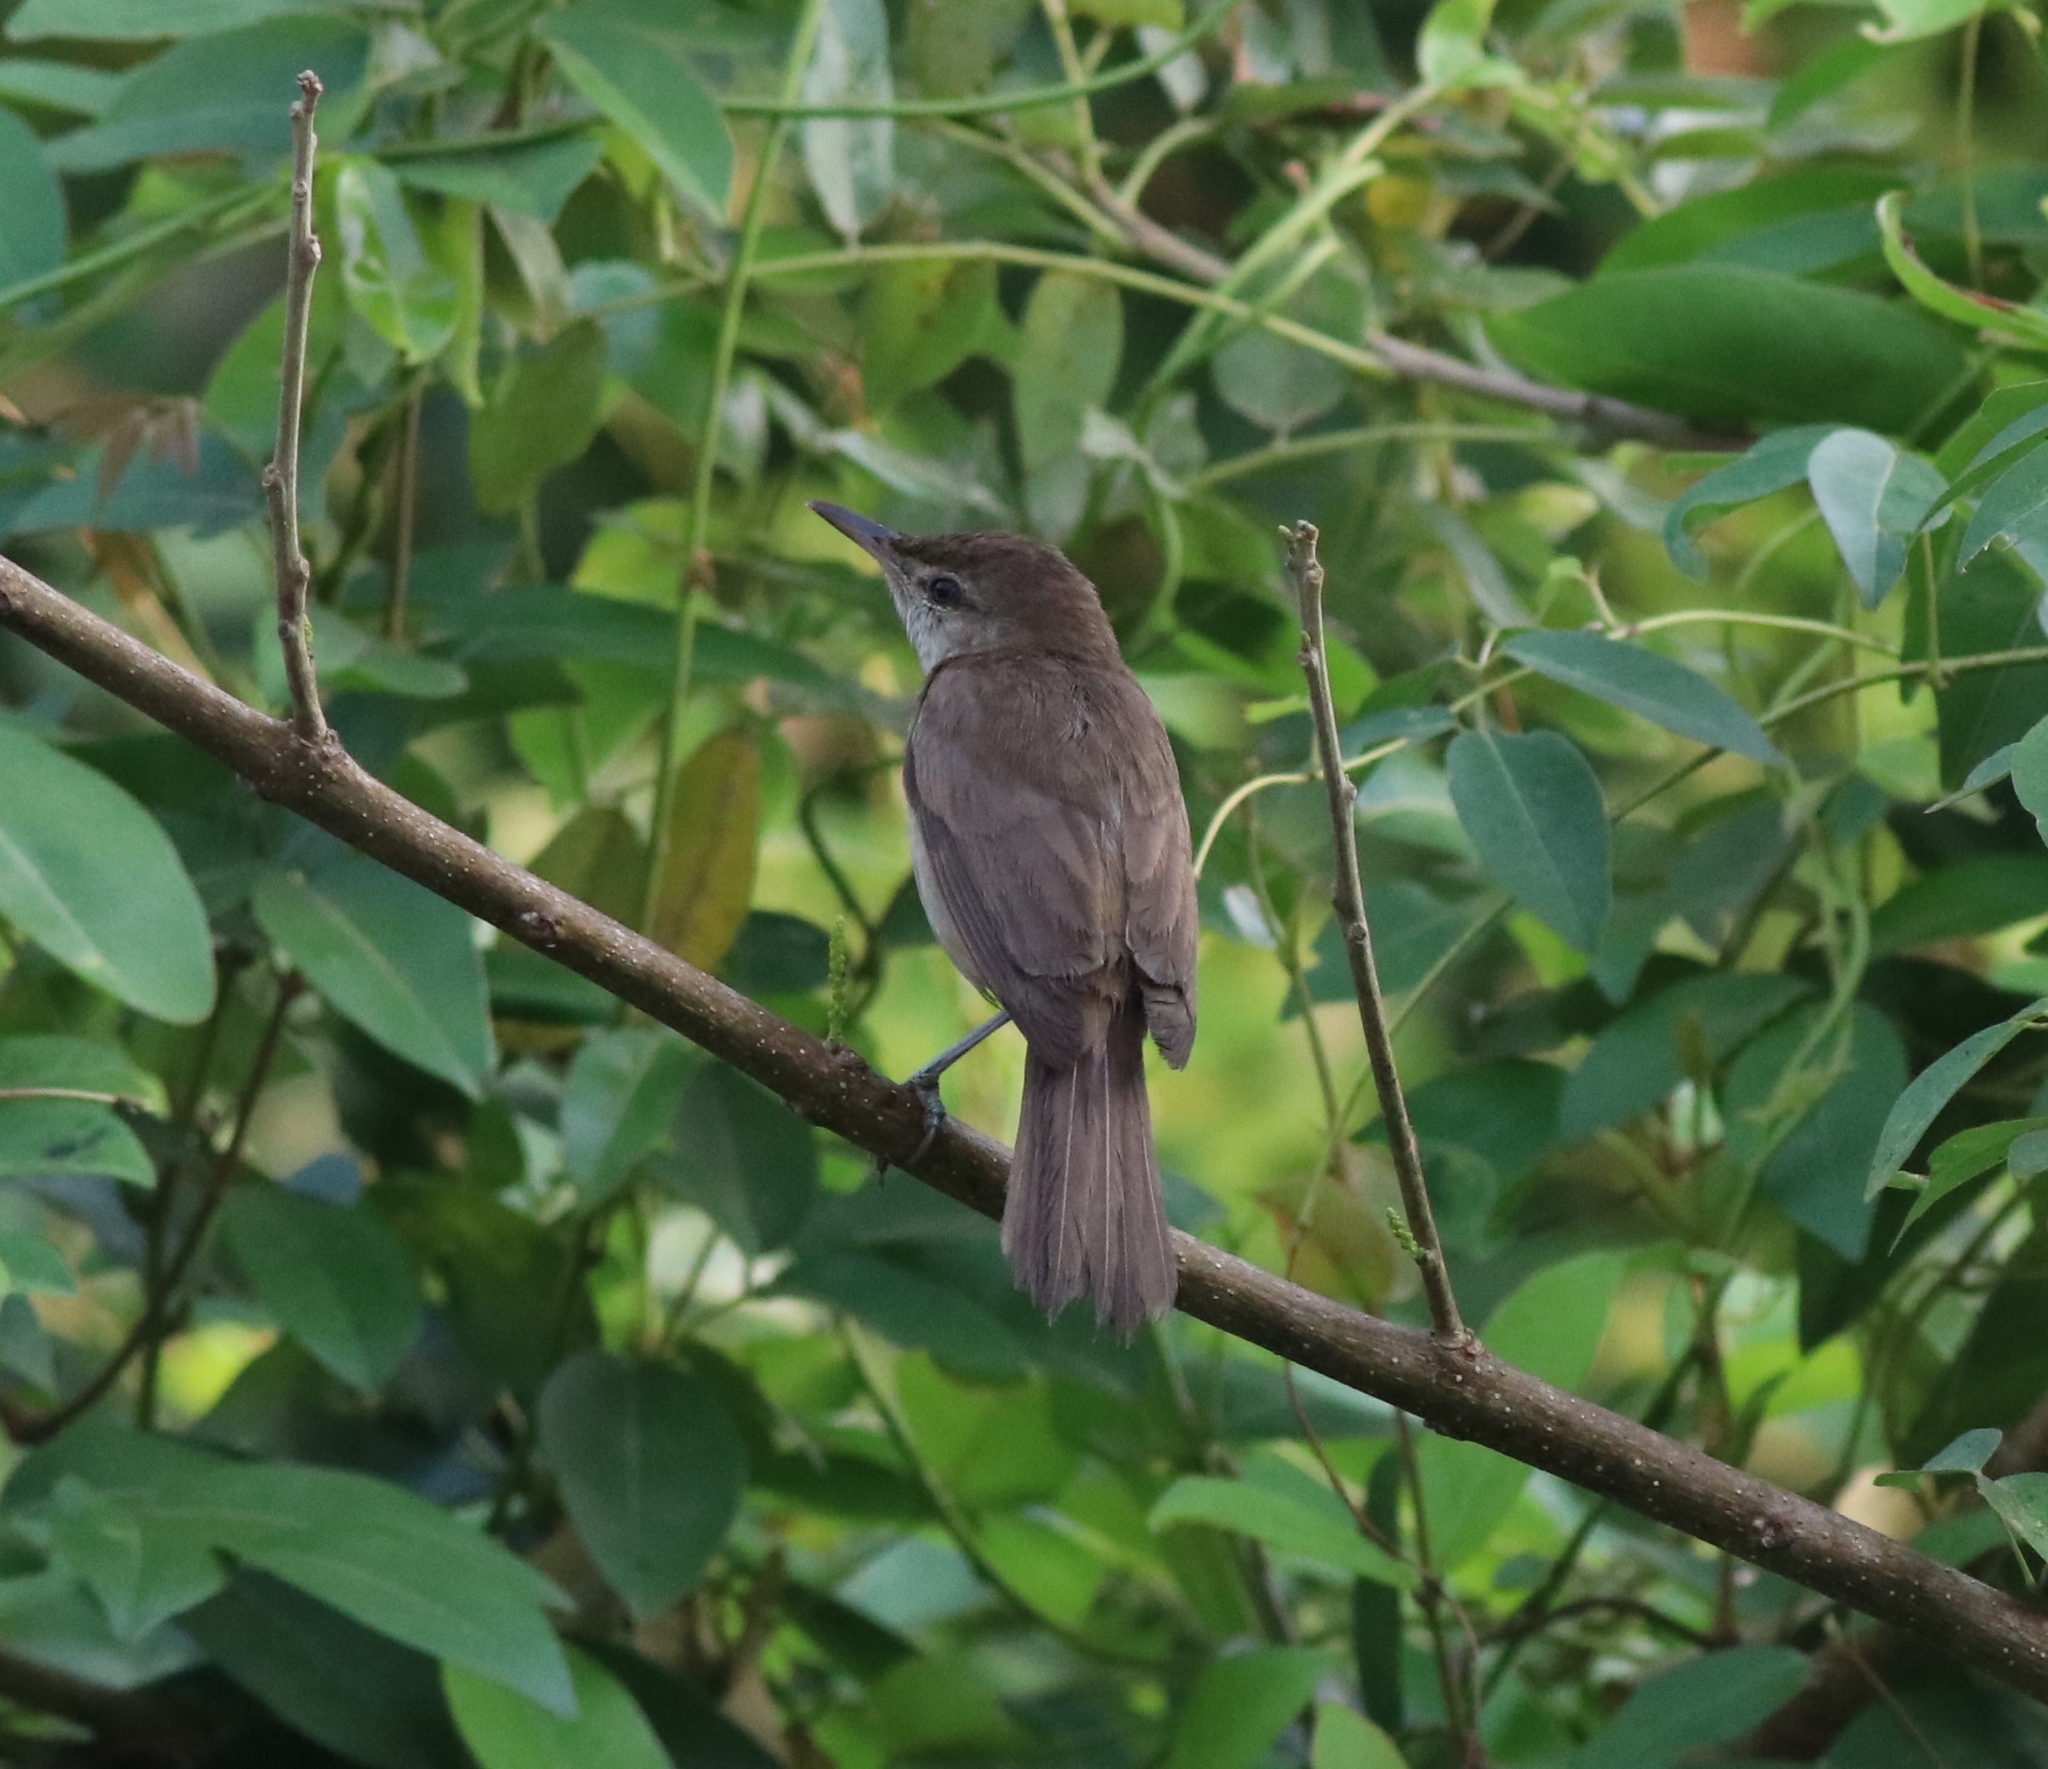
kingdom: Animalia
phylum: Chordata
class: Aves
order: Passeriformes
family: Acrocephalidae
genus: Acrocephalus
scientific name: Acrocephalus stentoreus
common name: Clamorous reed warbler
